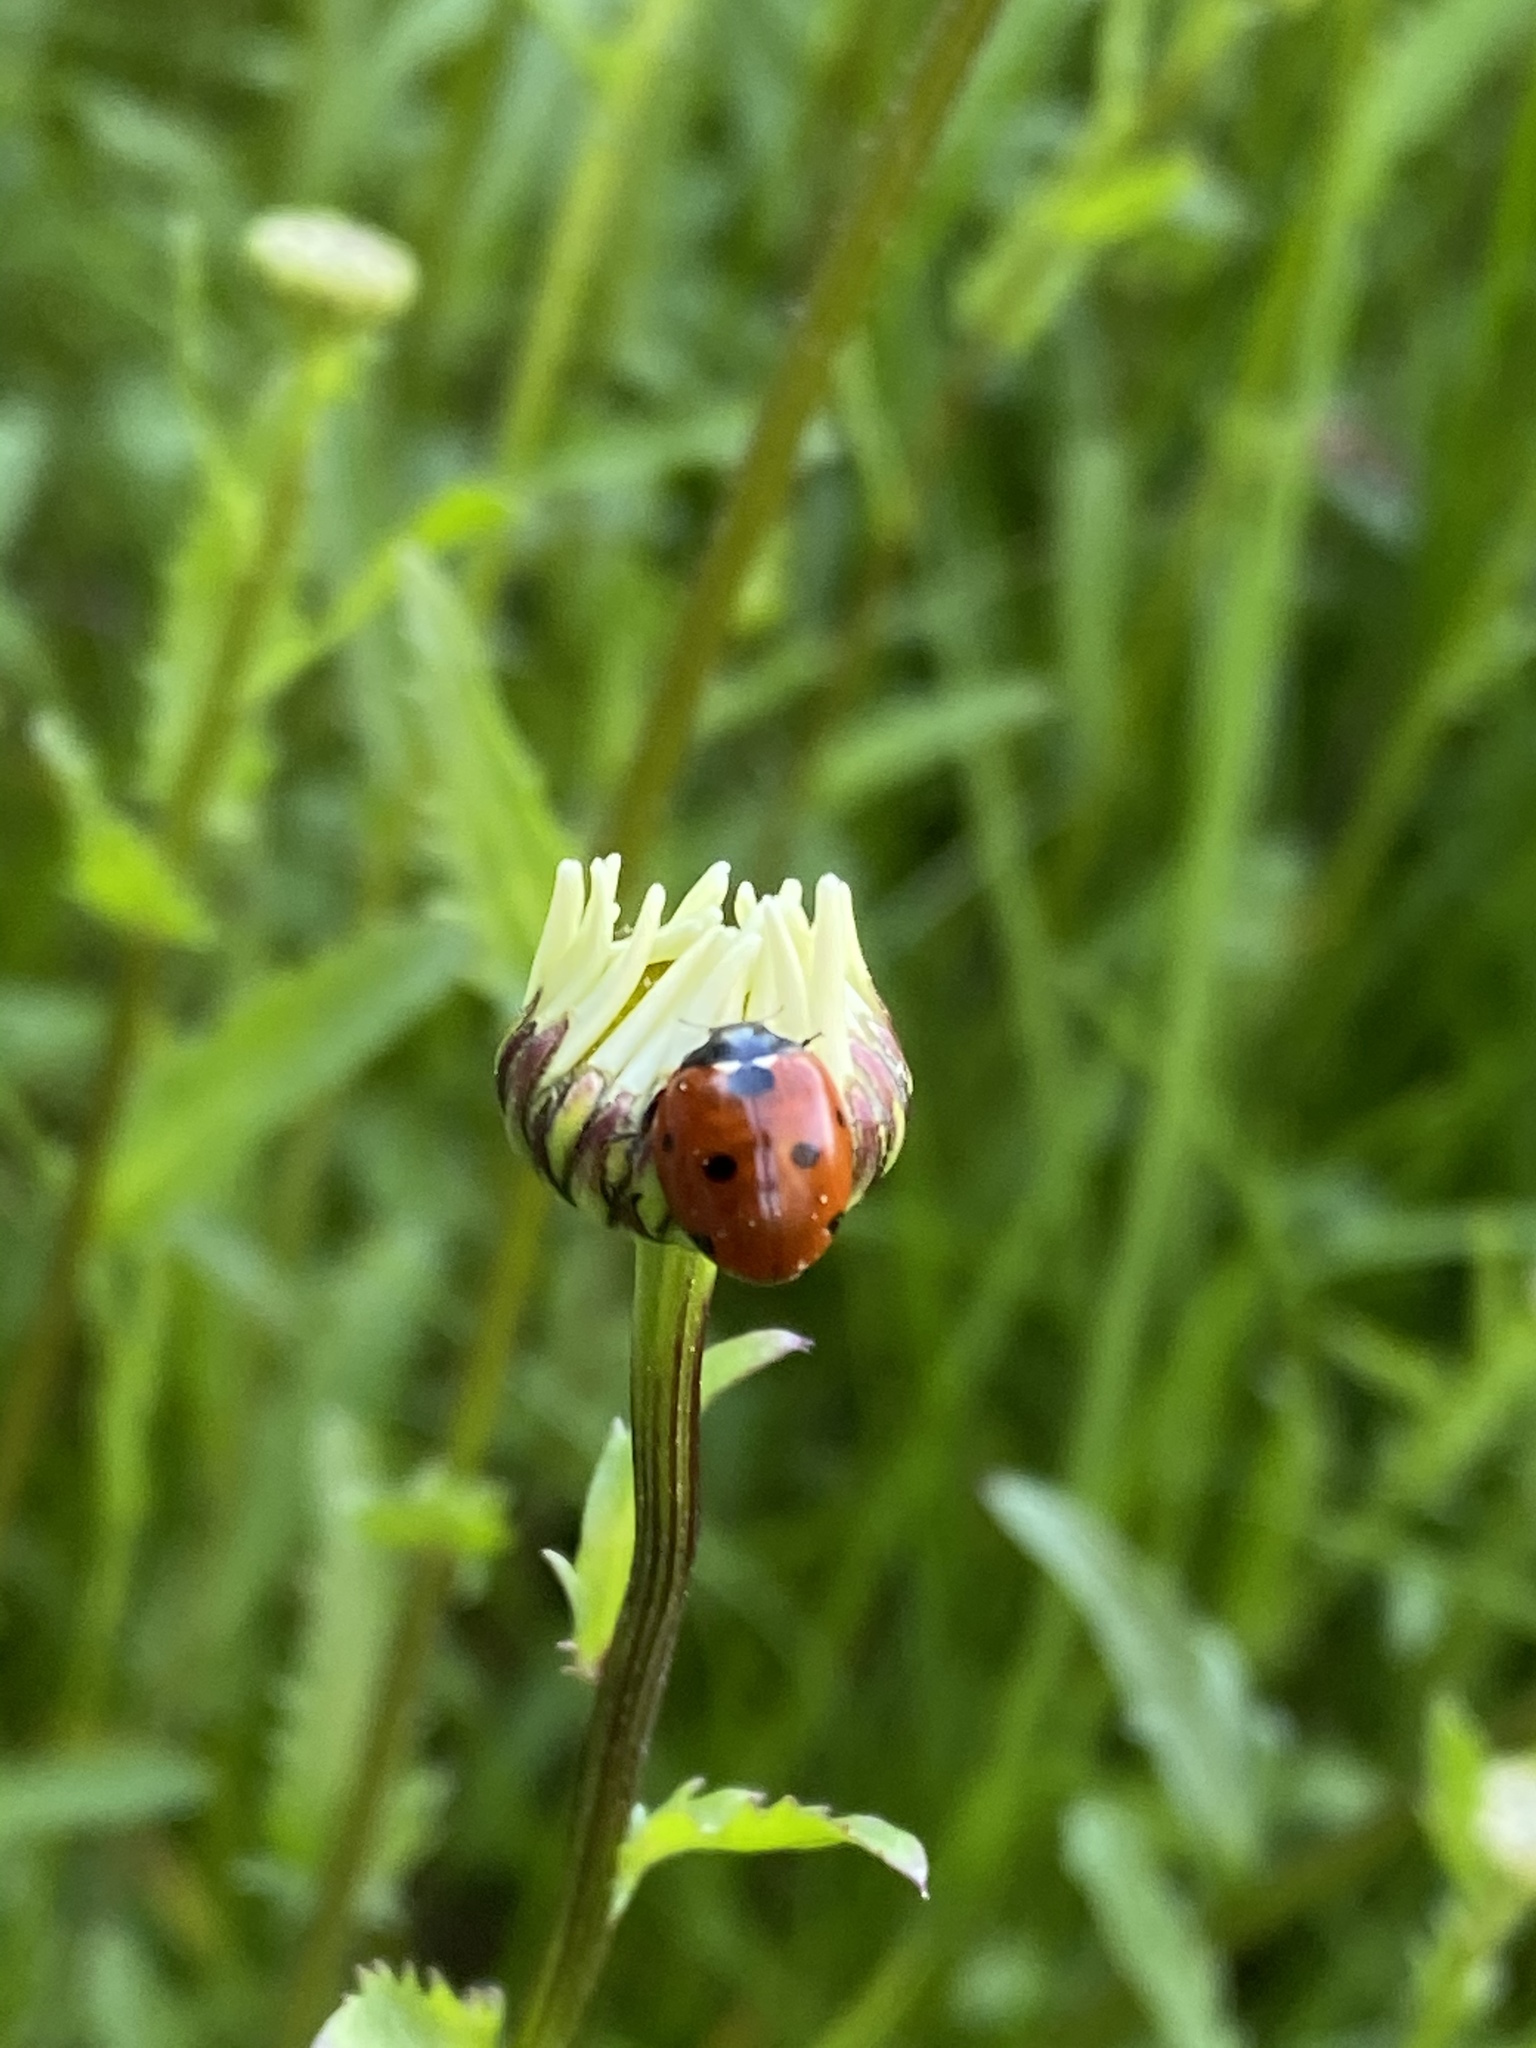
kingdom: Animalia
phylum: Arthropoda
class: Insecta
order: Coleoptera
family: Coccinellidae
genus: Coccinella
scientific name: Coccinella septempunctata
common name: Sevenspotted lady beetle
